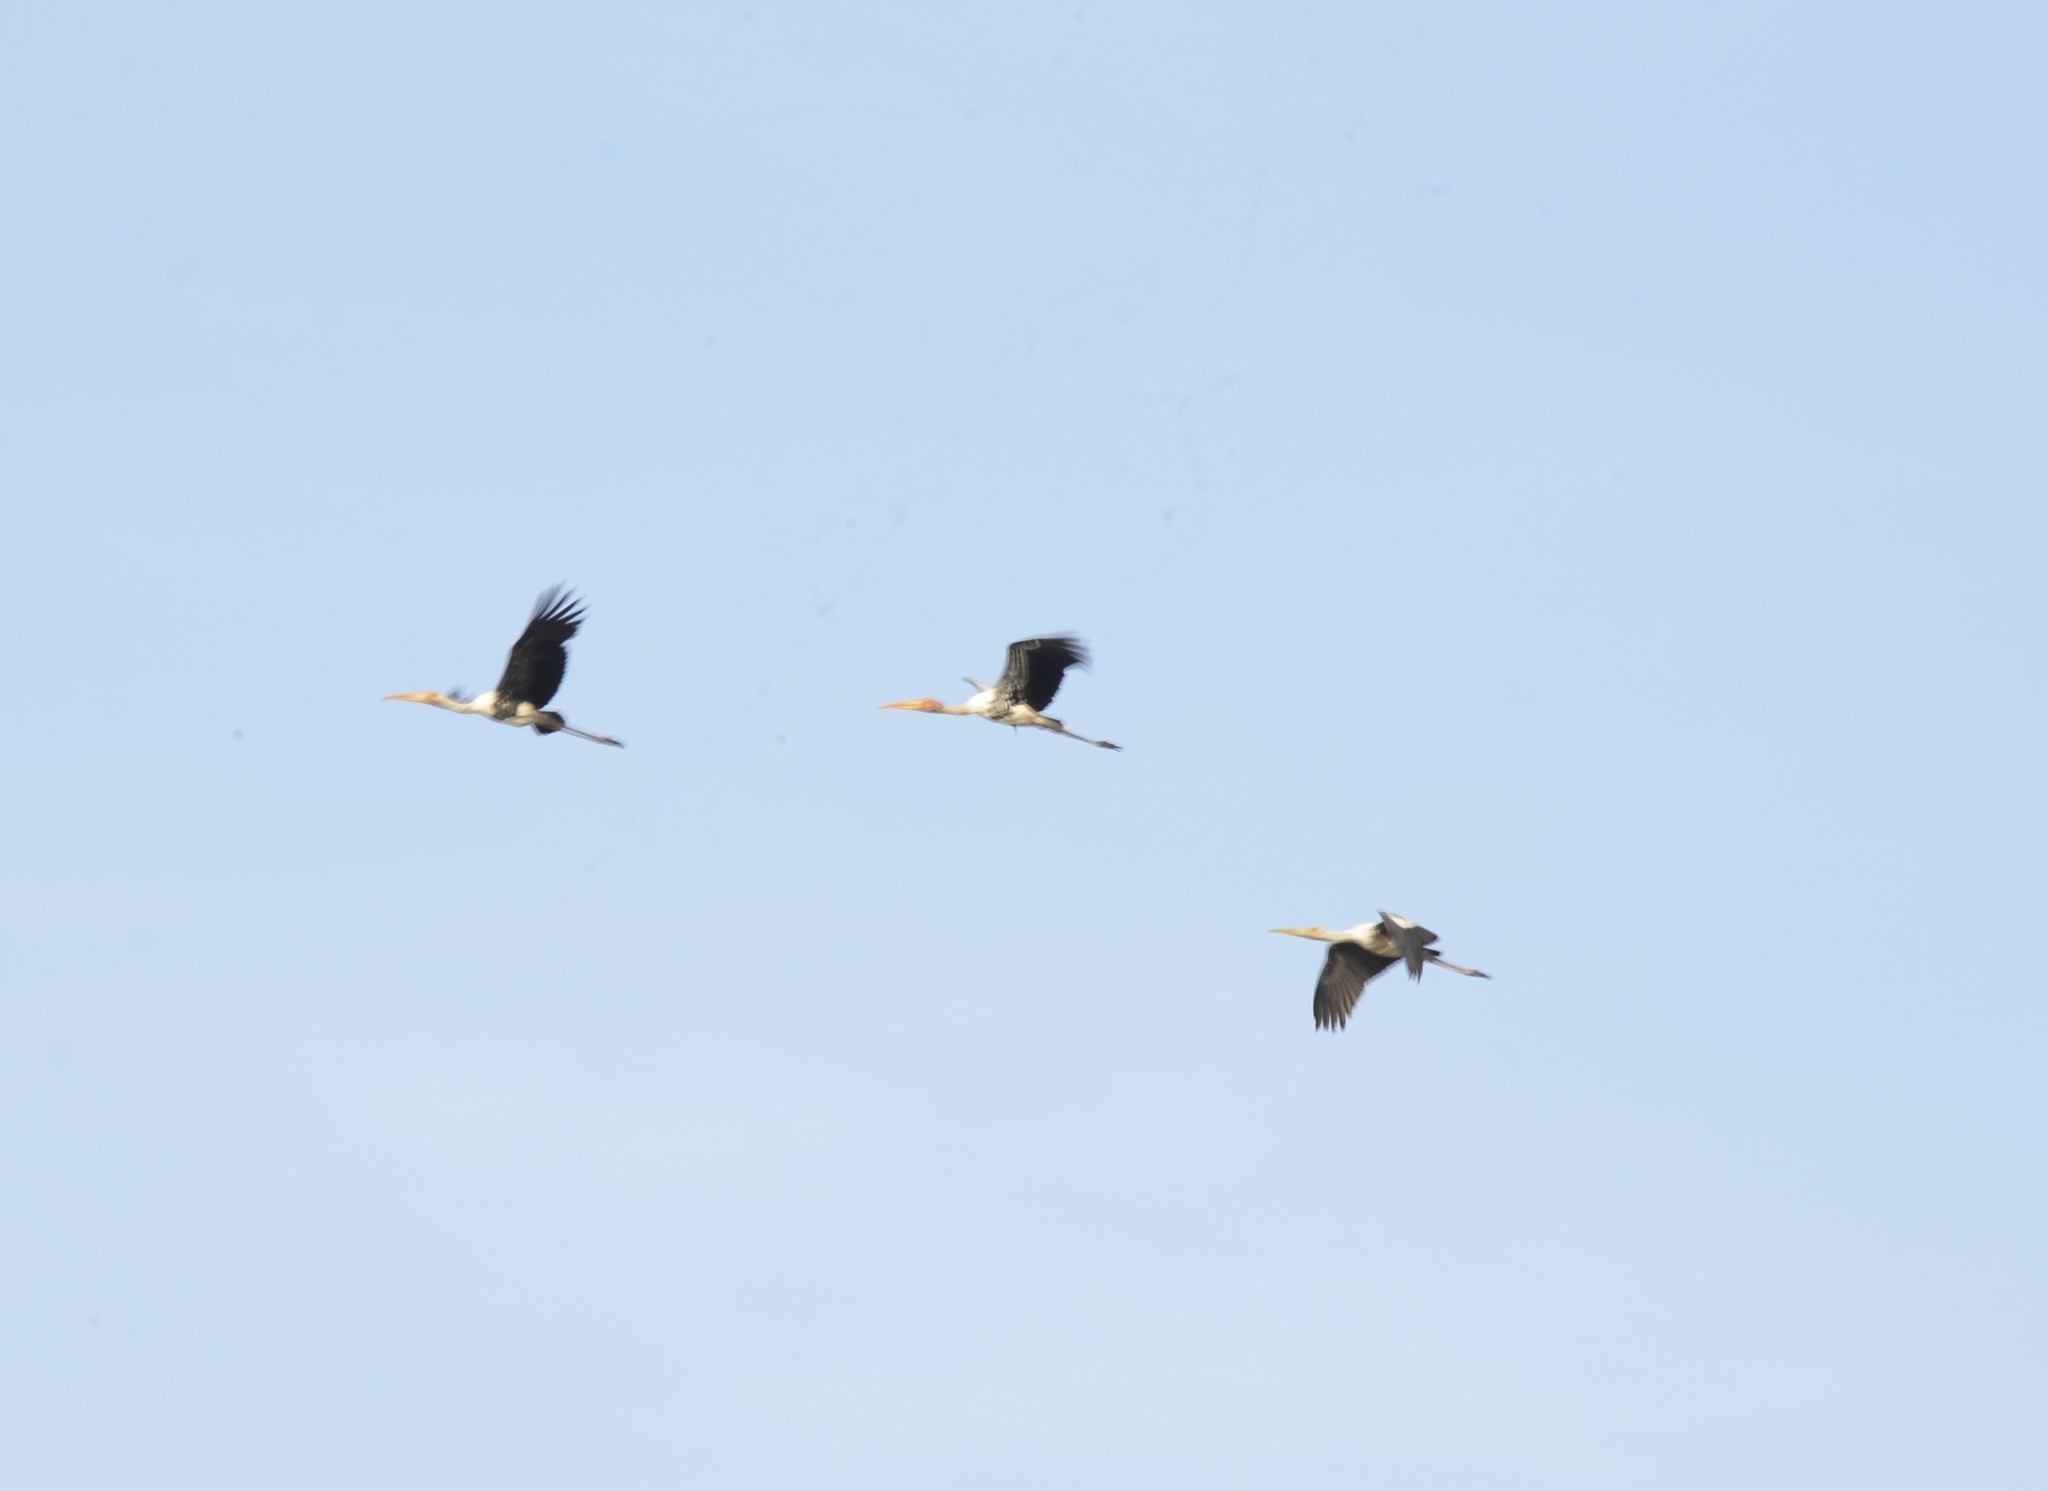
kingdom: Animalia
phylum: Chordata
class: Aves
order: Ciconiiformes
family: Ciconiidae
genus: Mycteria
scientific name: Mycteria leucocephala
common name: Painted stork
